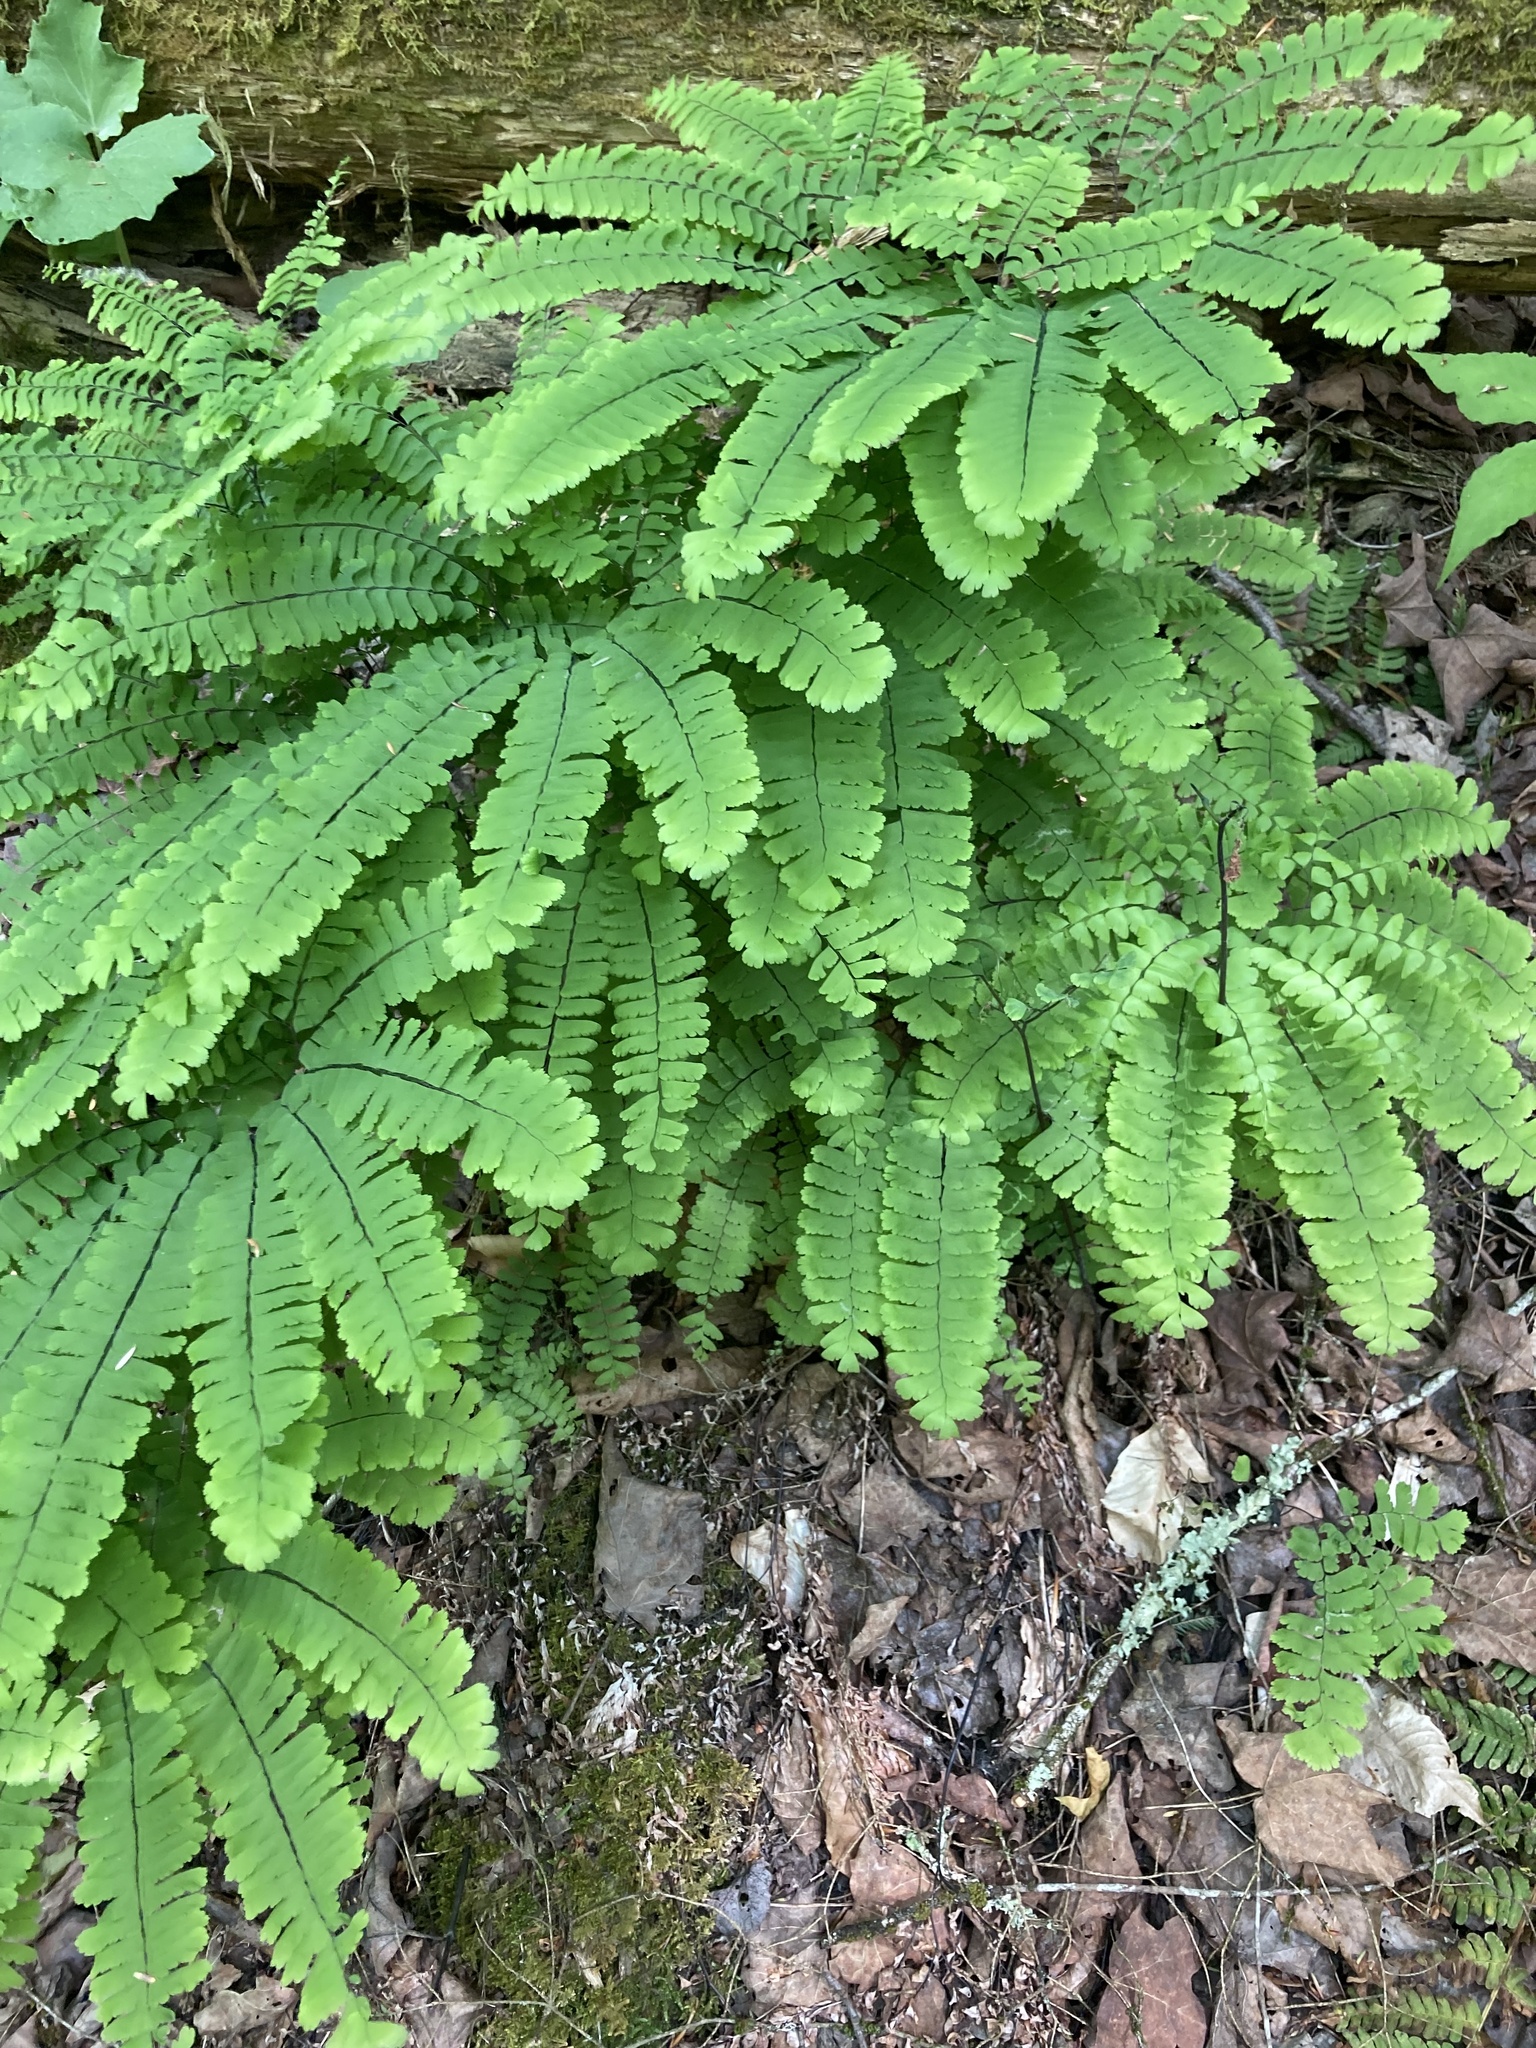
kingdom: Plantae
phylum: Tracheophyta
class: Polypodiopsida
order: Polypodiales
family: Pteridaceae
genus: Adiantum
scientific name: Adiantum pedatum
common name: Five-finger fern
